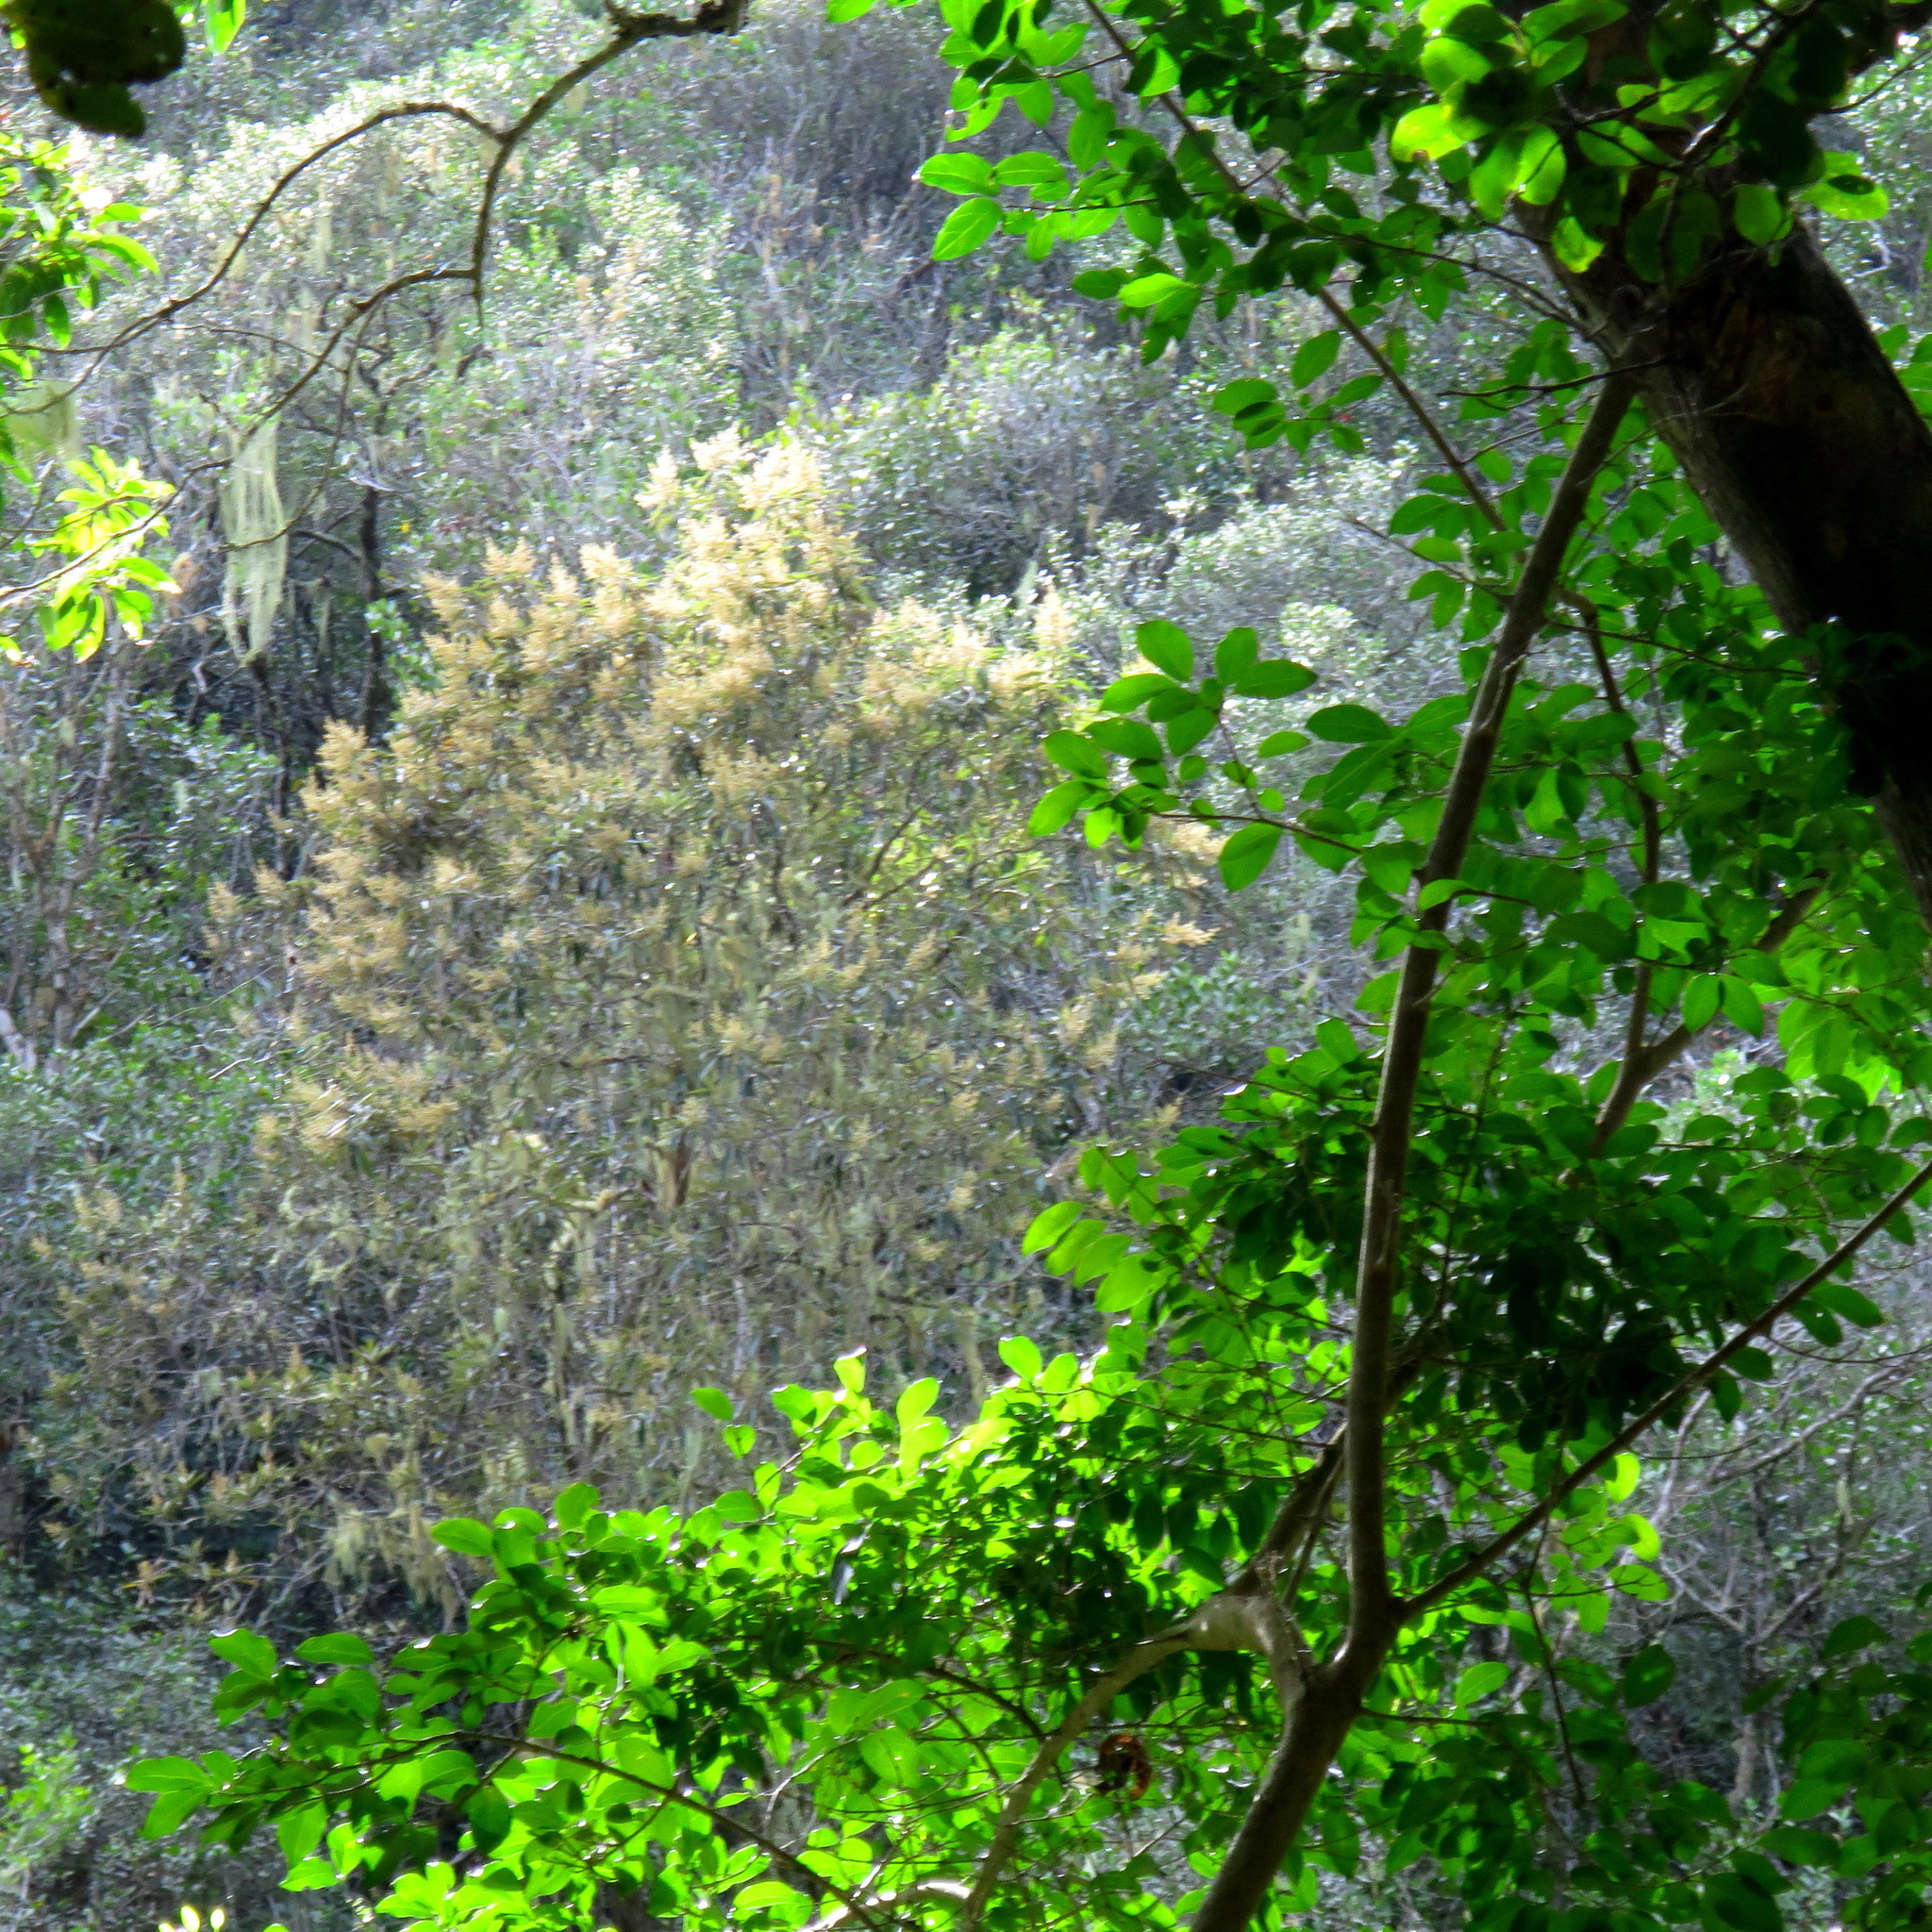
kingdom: Plantae
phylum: Tracheophyta
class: Magnoliopsida
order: Lamiales
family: Oleaceae
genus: Olea
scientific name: Olea capensis
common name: Black ironwood
